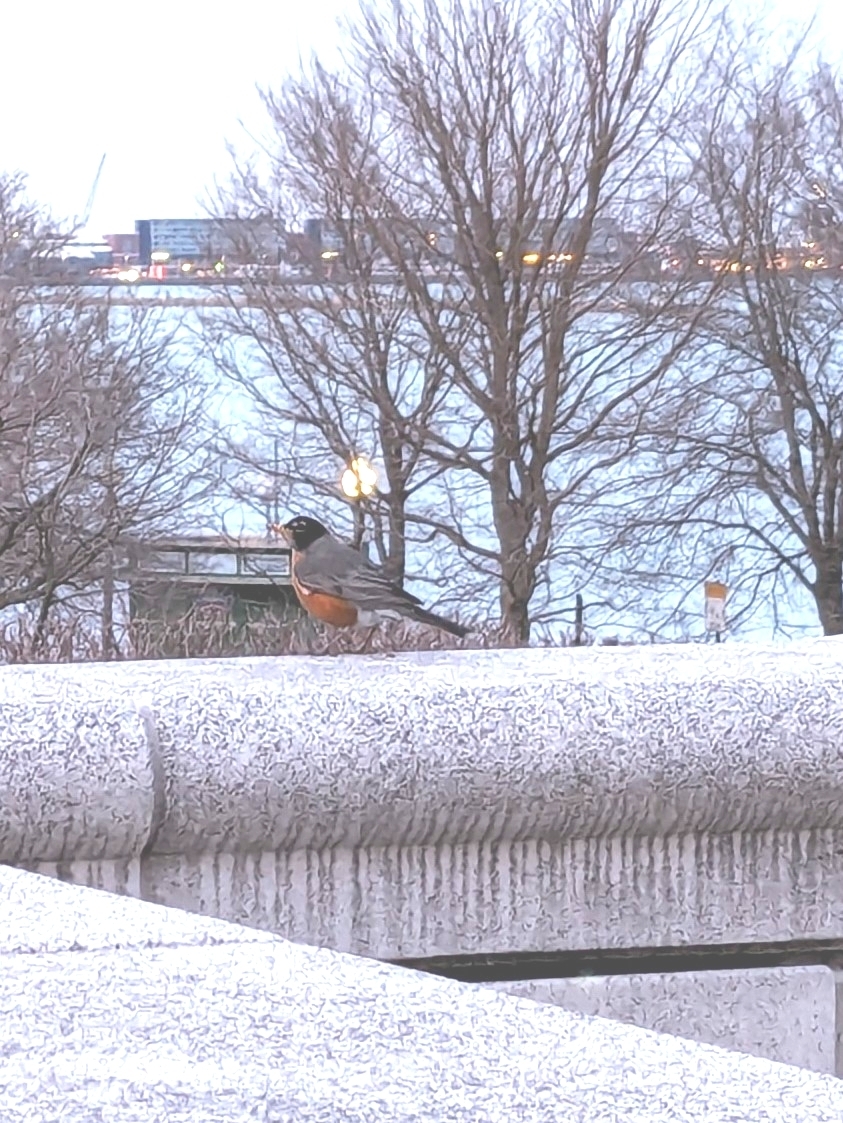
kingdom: Animalia
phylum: Chordata
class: Aves
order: Passeriformes
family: Turdidae
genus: Turdus
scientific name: Turdus migratorius
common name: American robin
